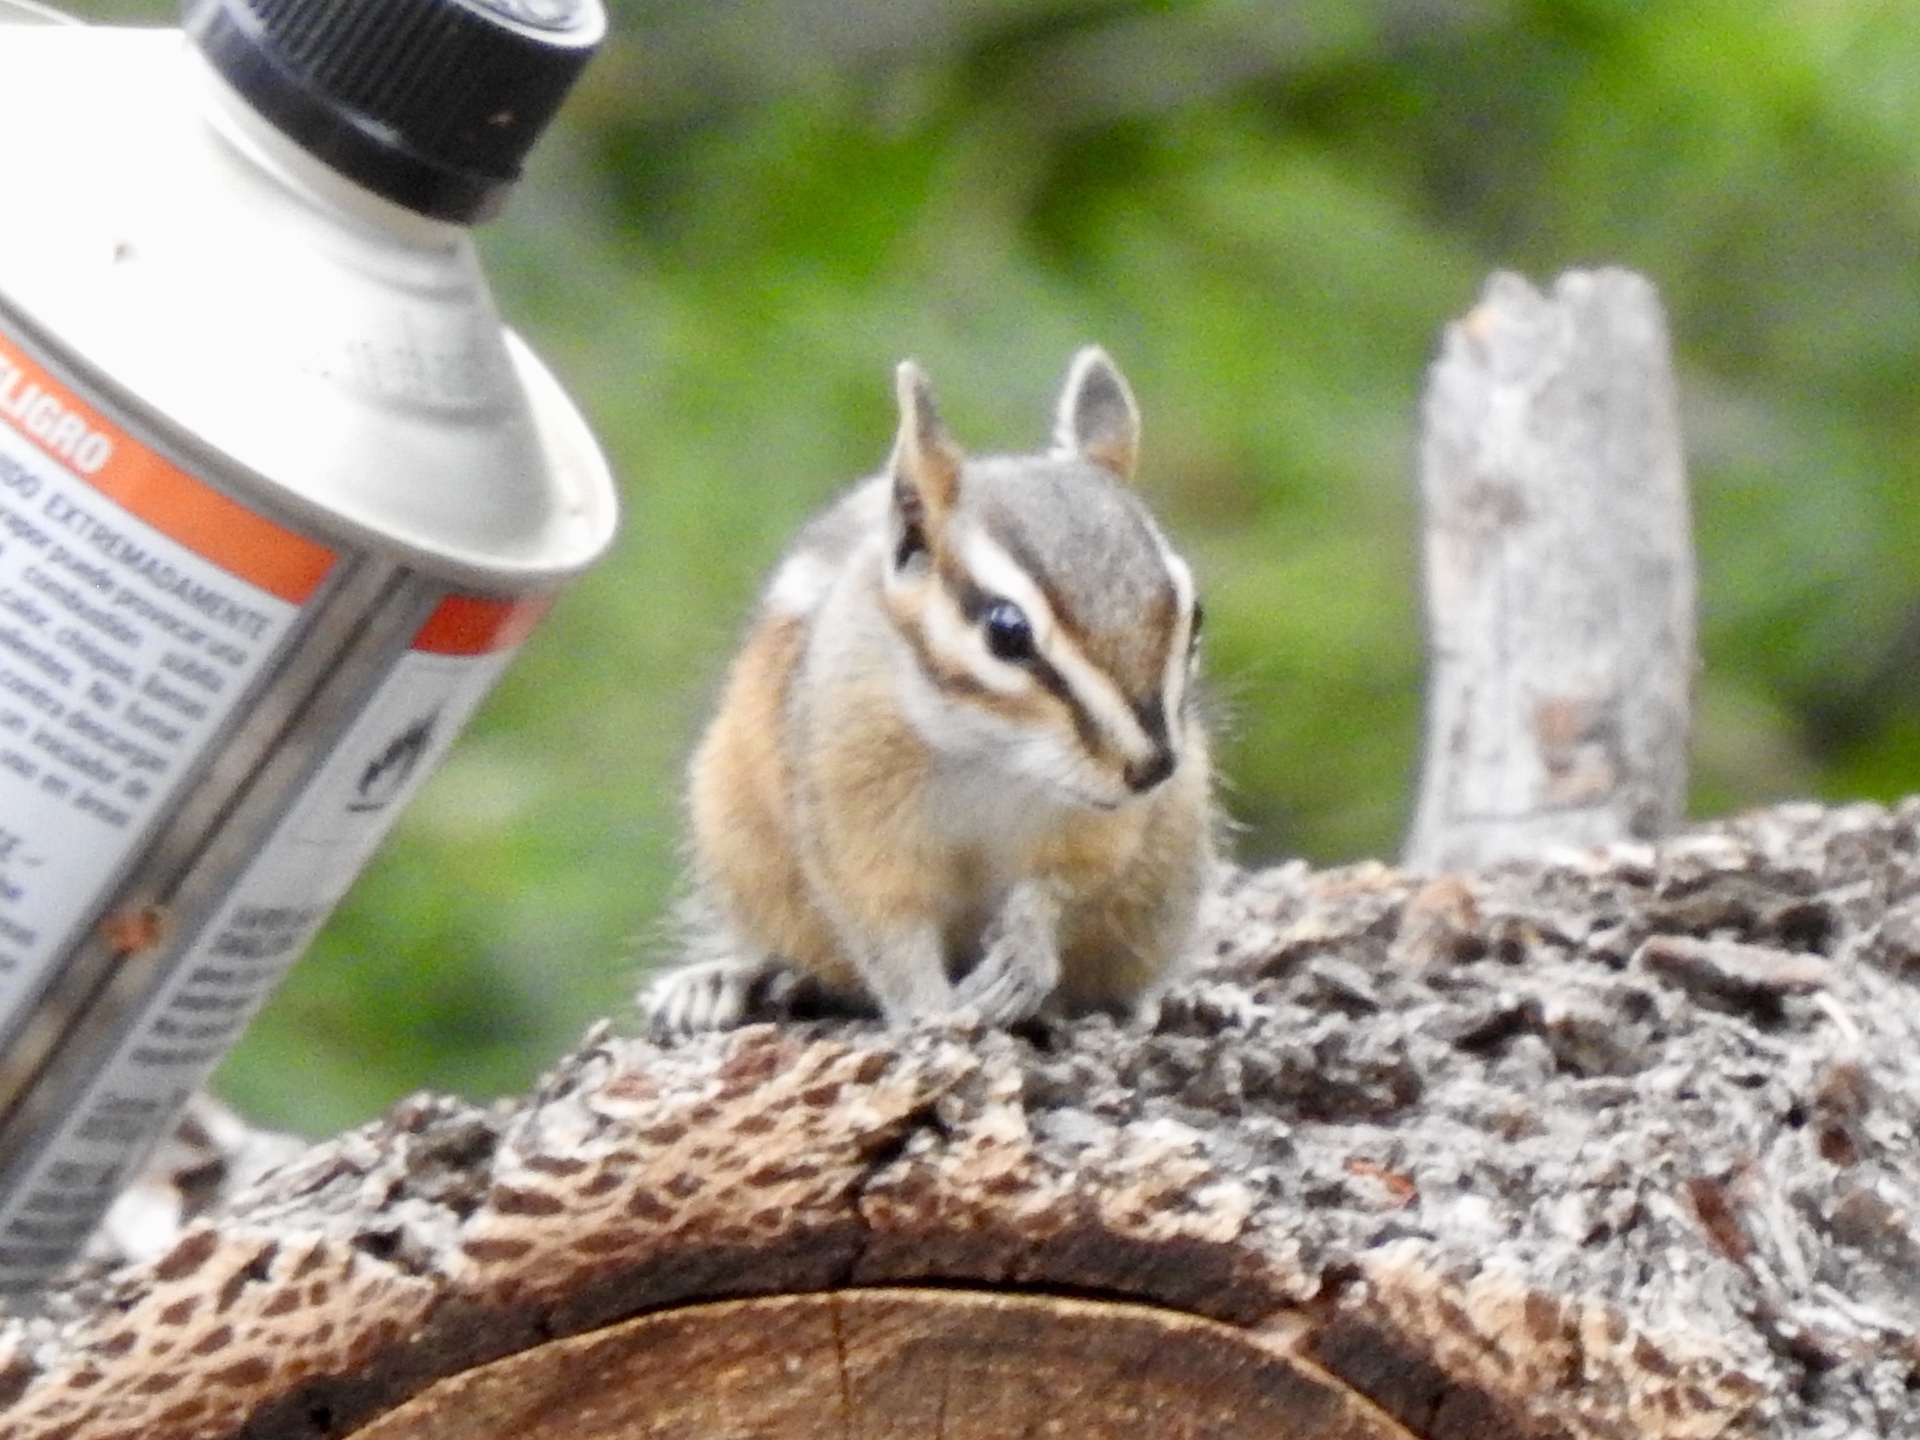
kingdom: Animalia
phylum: Chordata
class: Mammalia
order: Rodentia
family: Sciuridae
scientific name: Sciuridae
